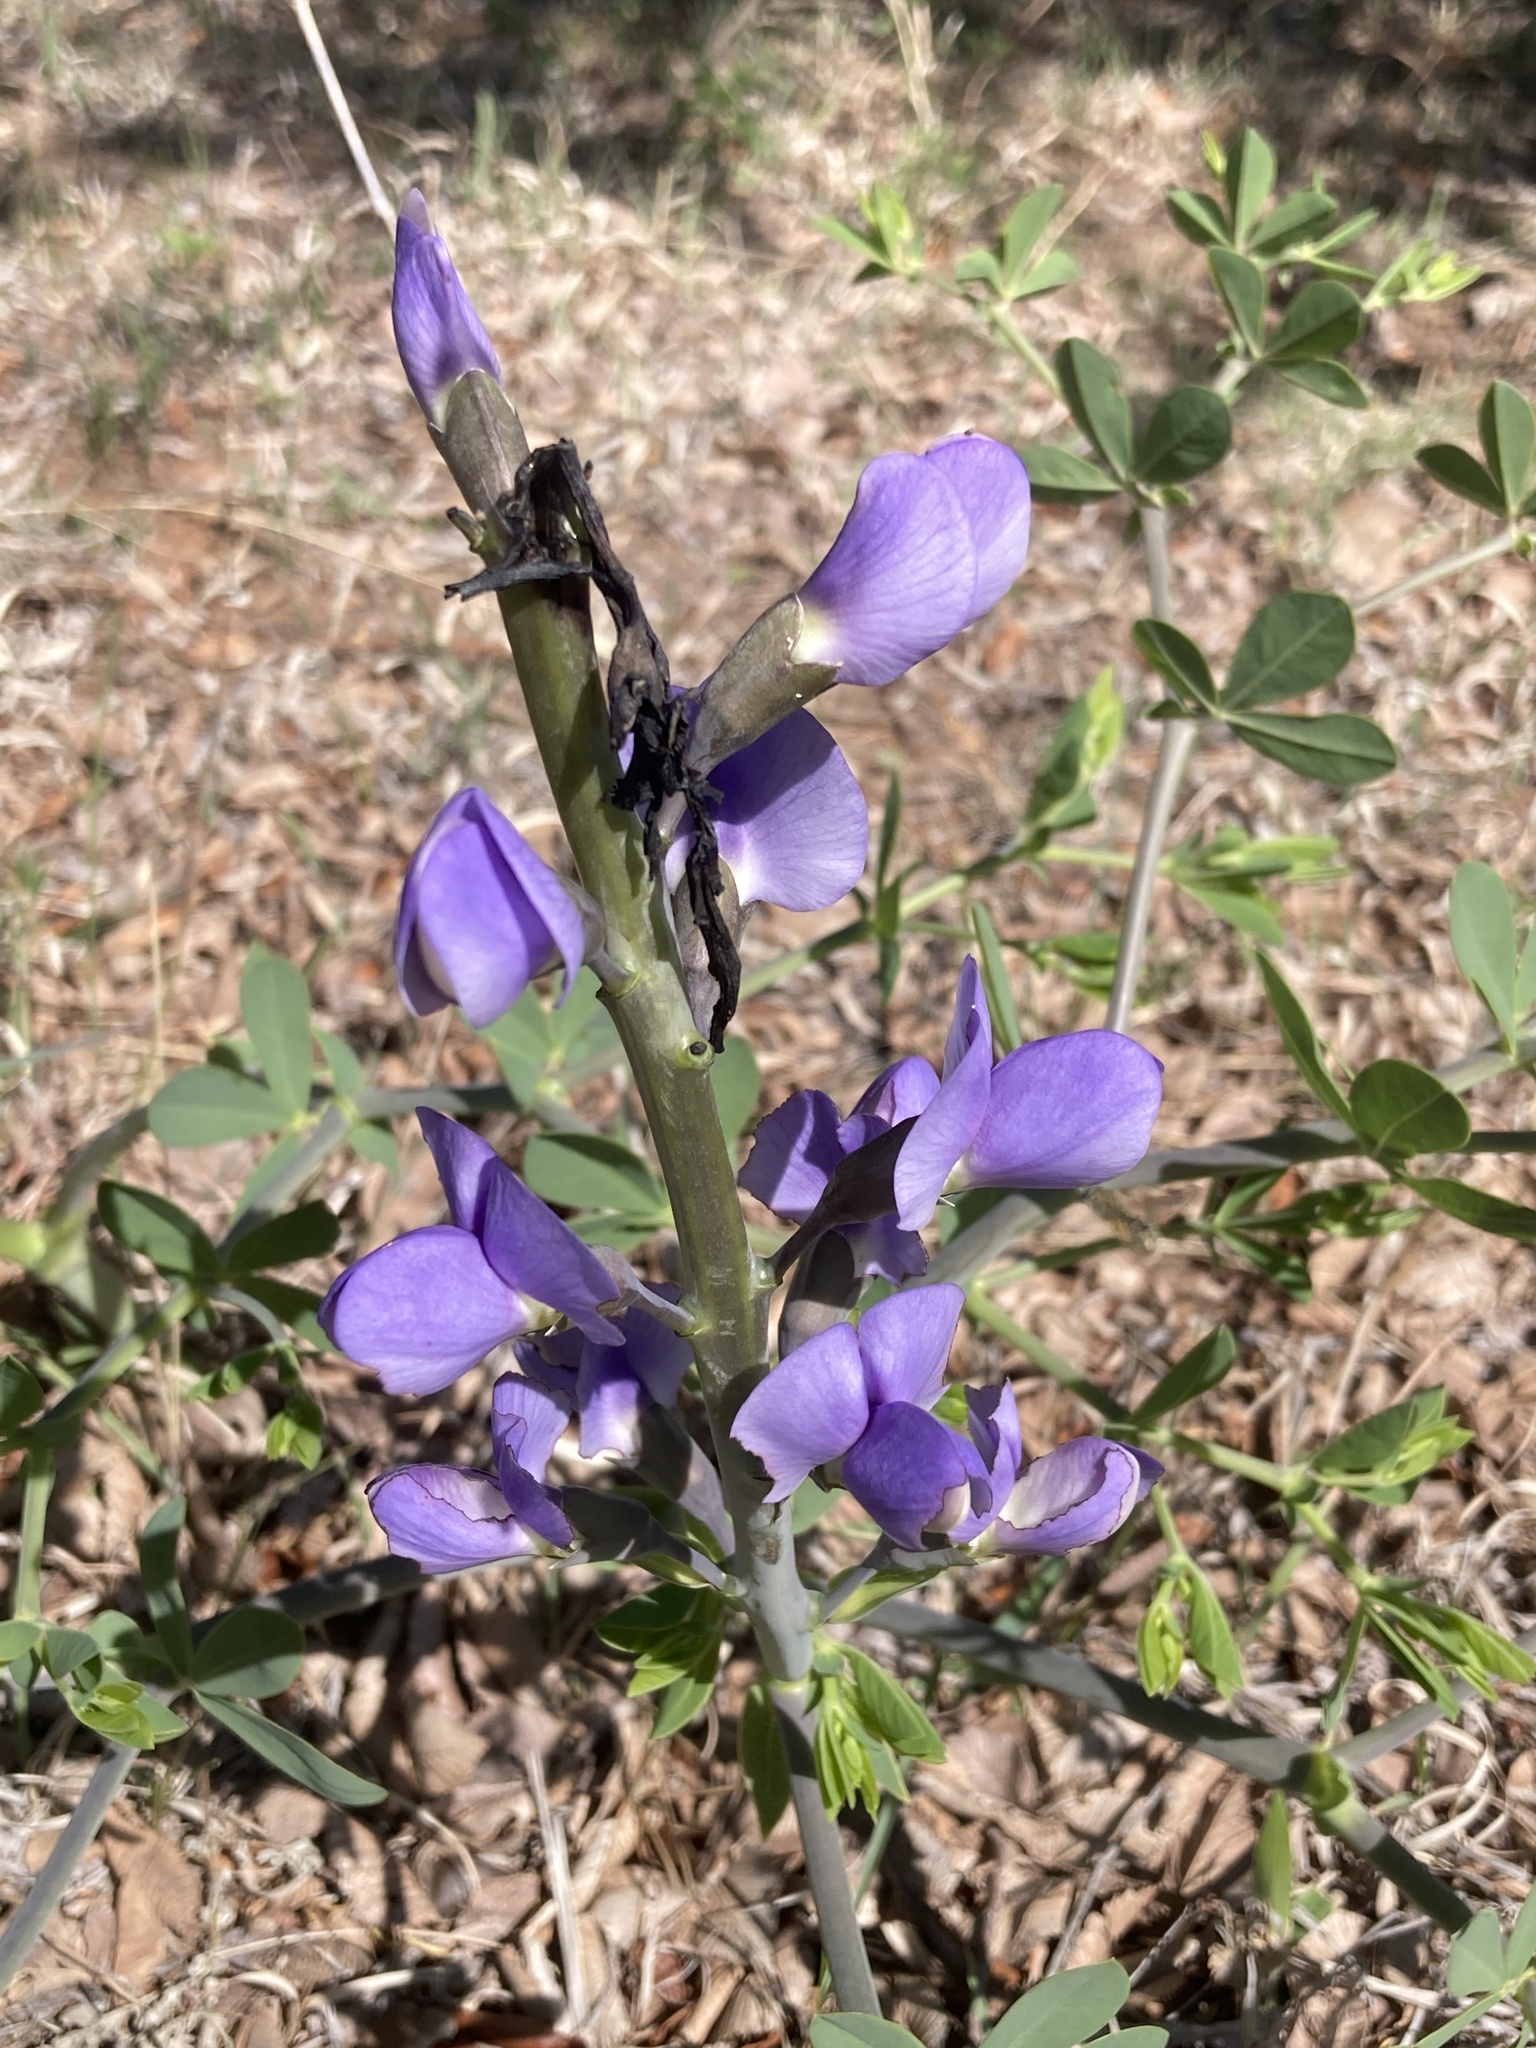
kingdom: Plantae
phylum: Tracheophyta
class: Magnoliopsida
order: Fabales
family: Fabaceae
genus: Baptisia
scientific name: Baptisia australis
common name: Blue false indigo
